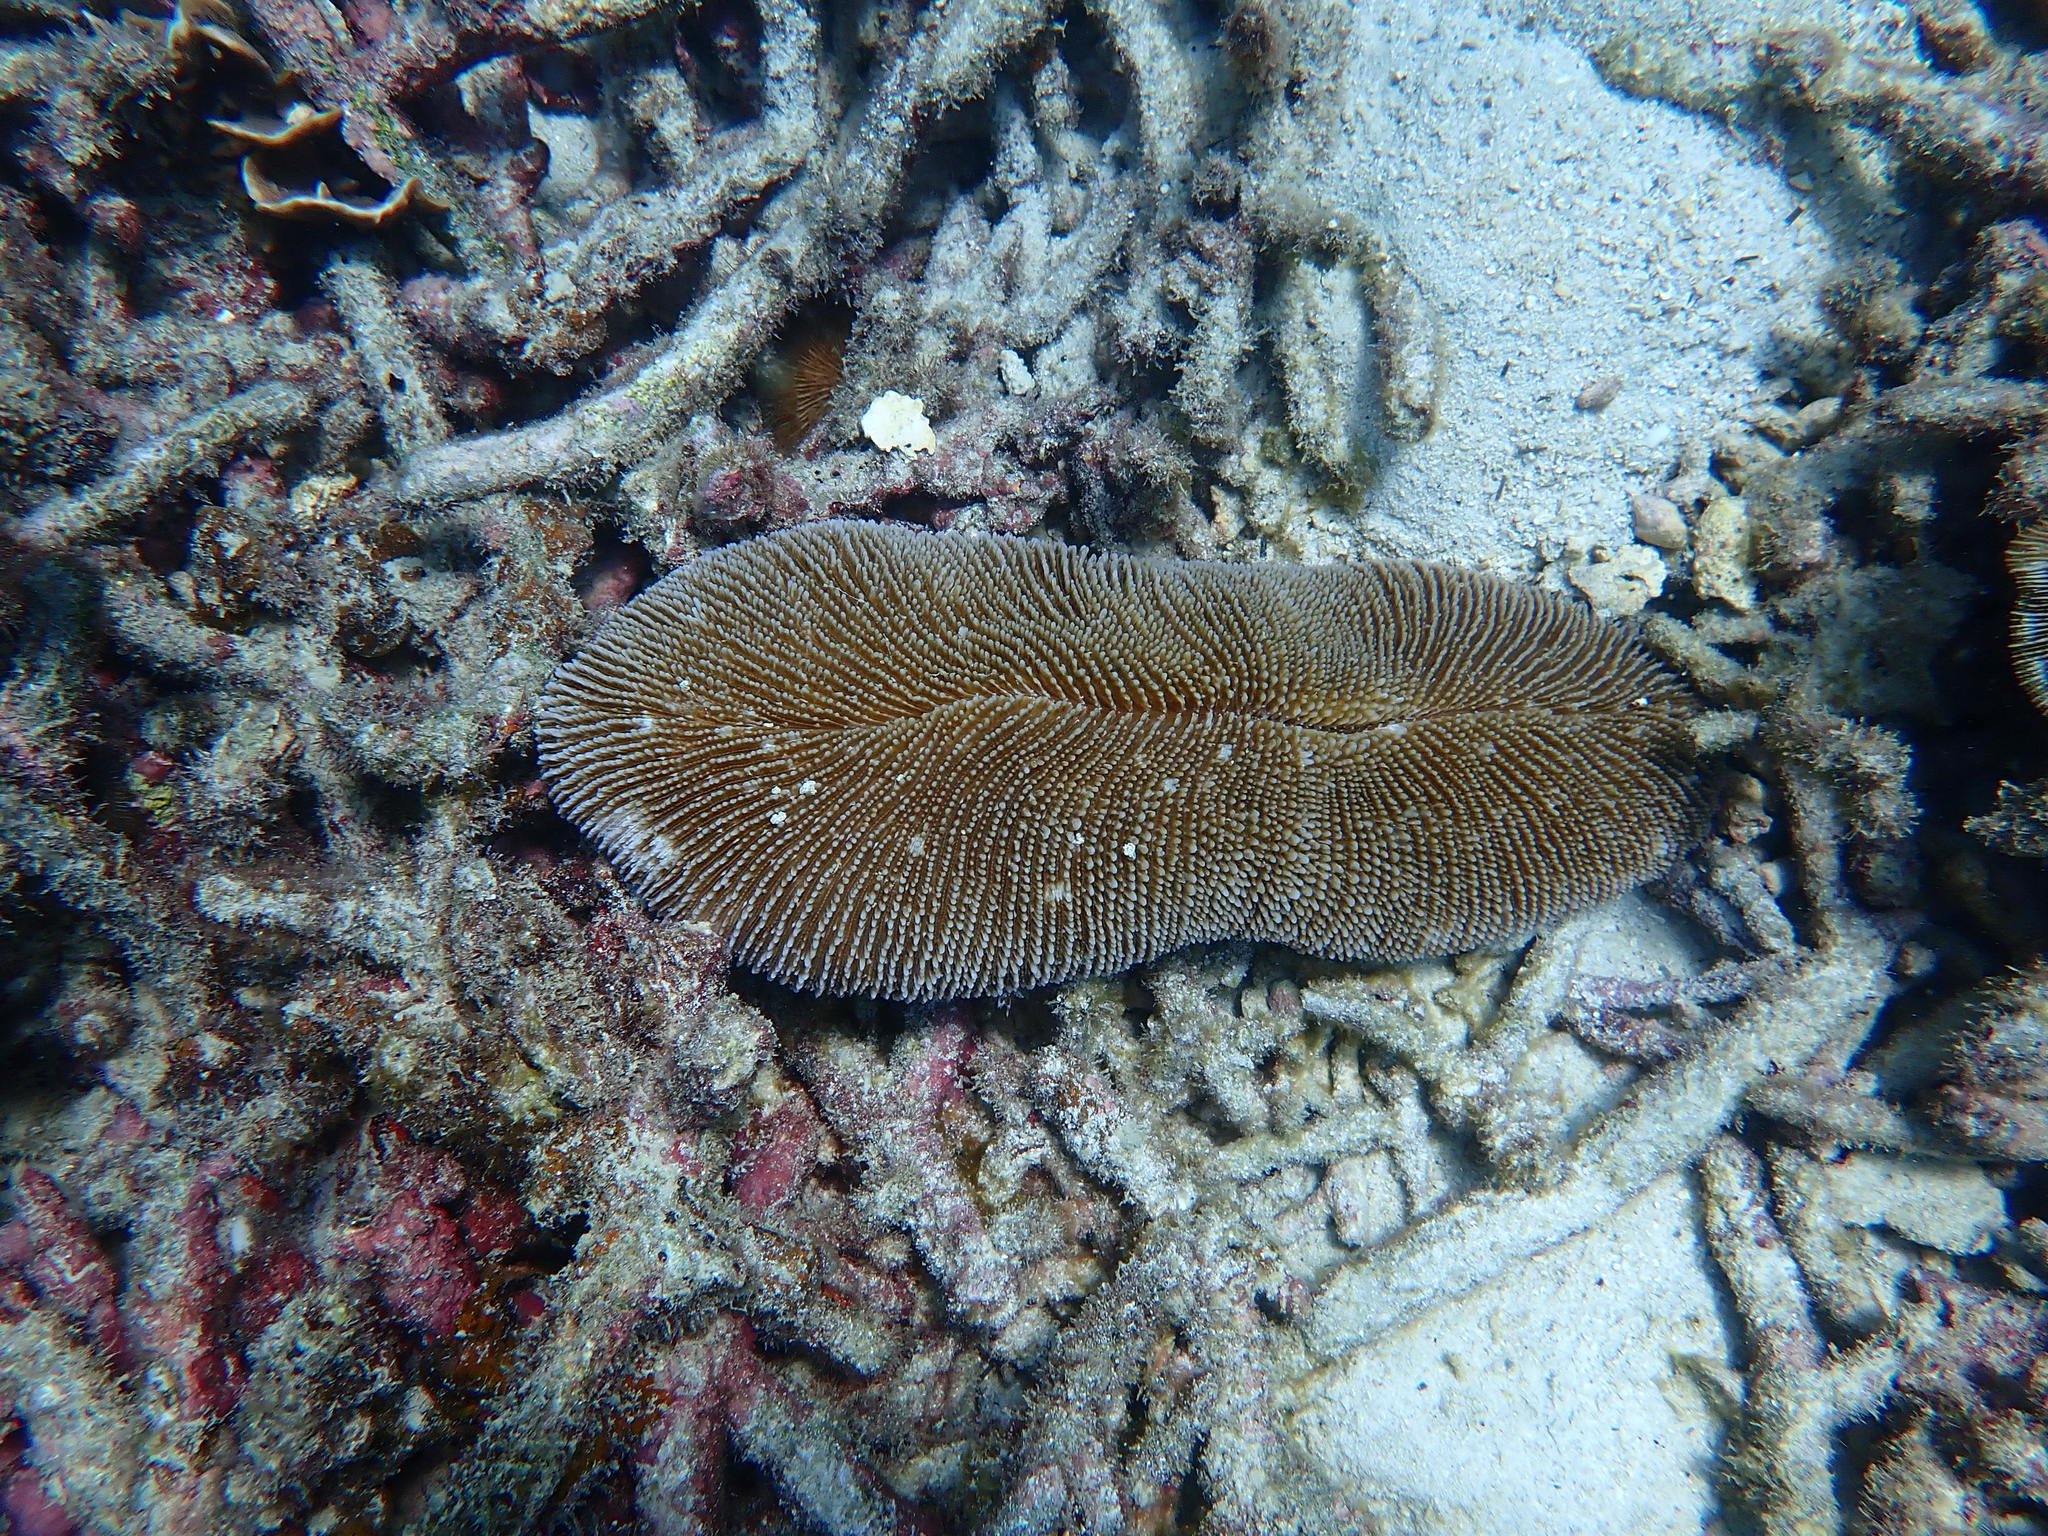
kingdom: Animalia
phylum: Cnidaria
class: Anthozoa
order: Scleractinia
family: Fungiidae
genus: Ctenactis
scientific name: Ctenactis echinata
